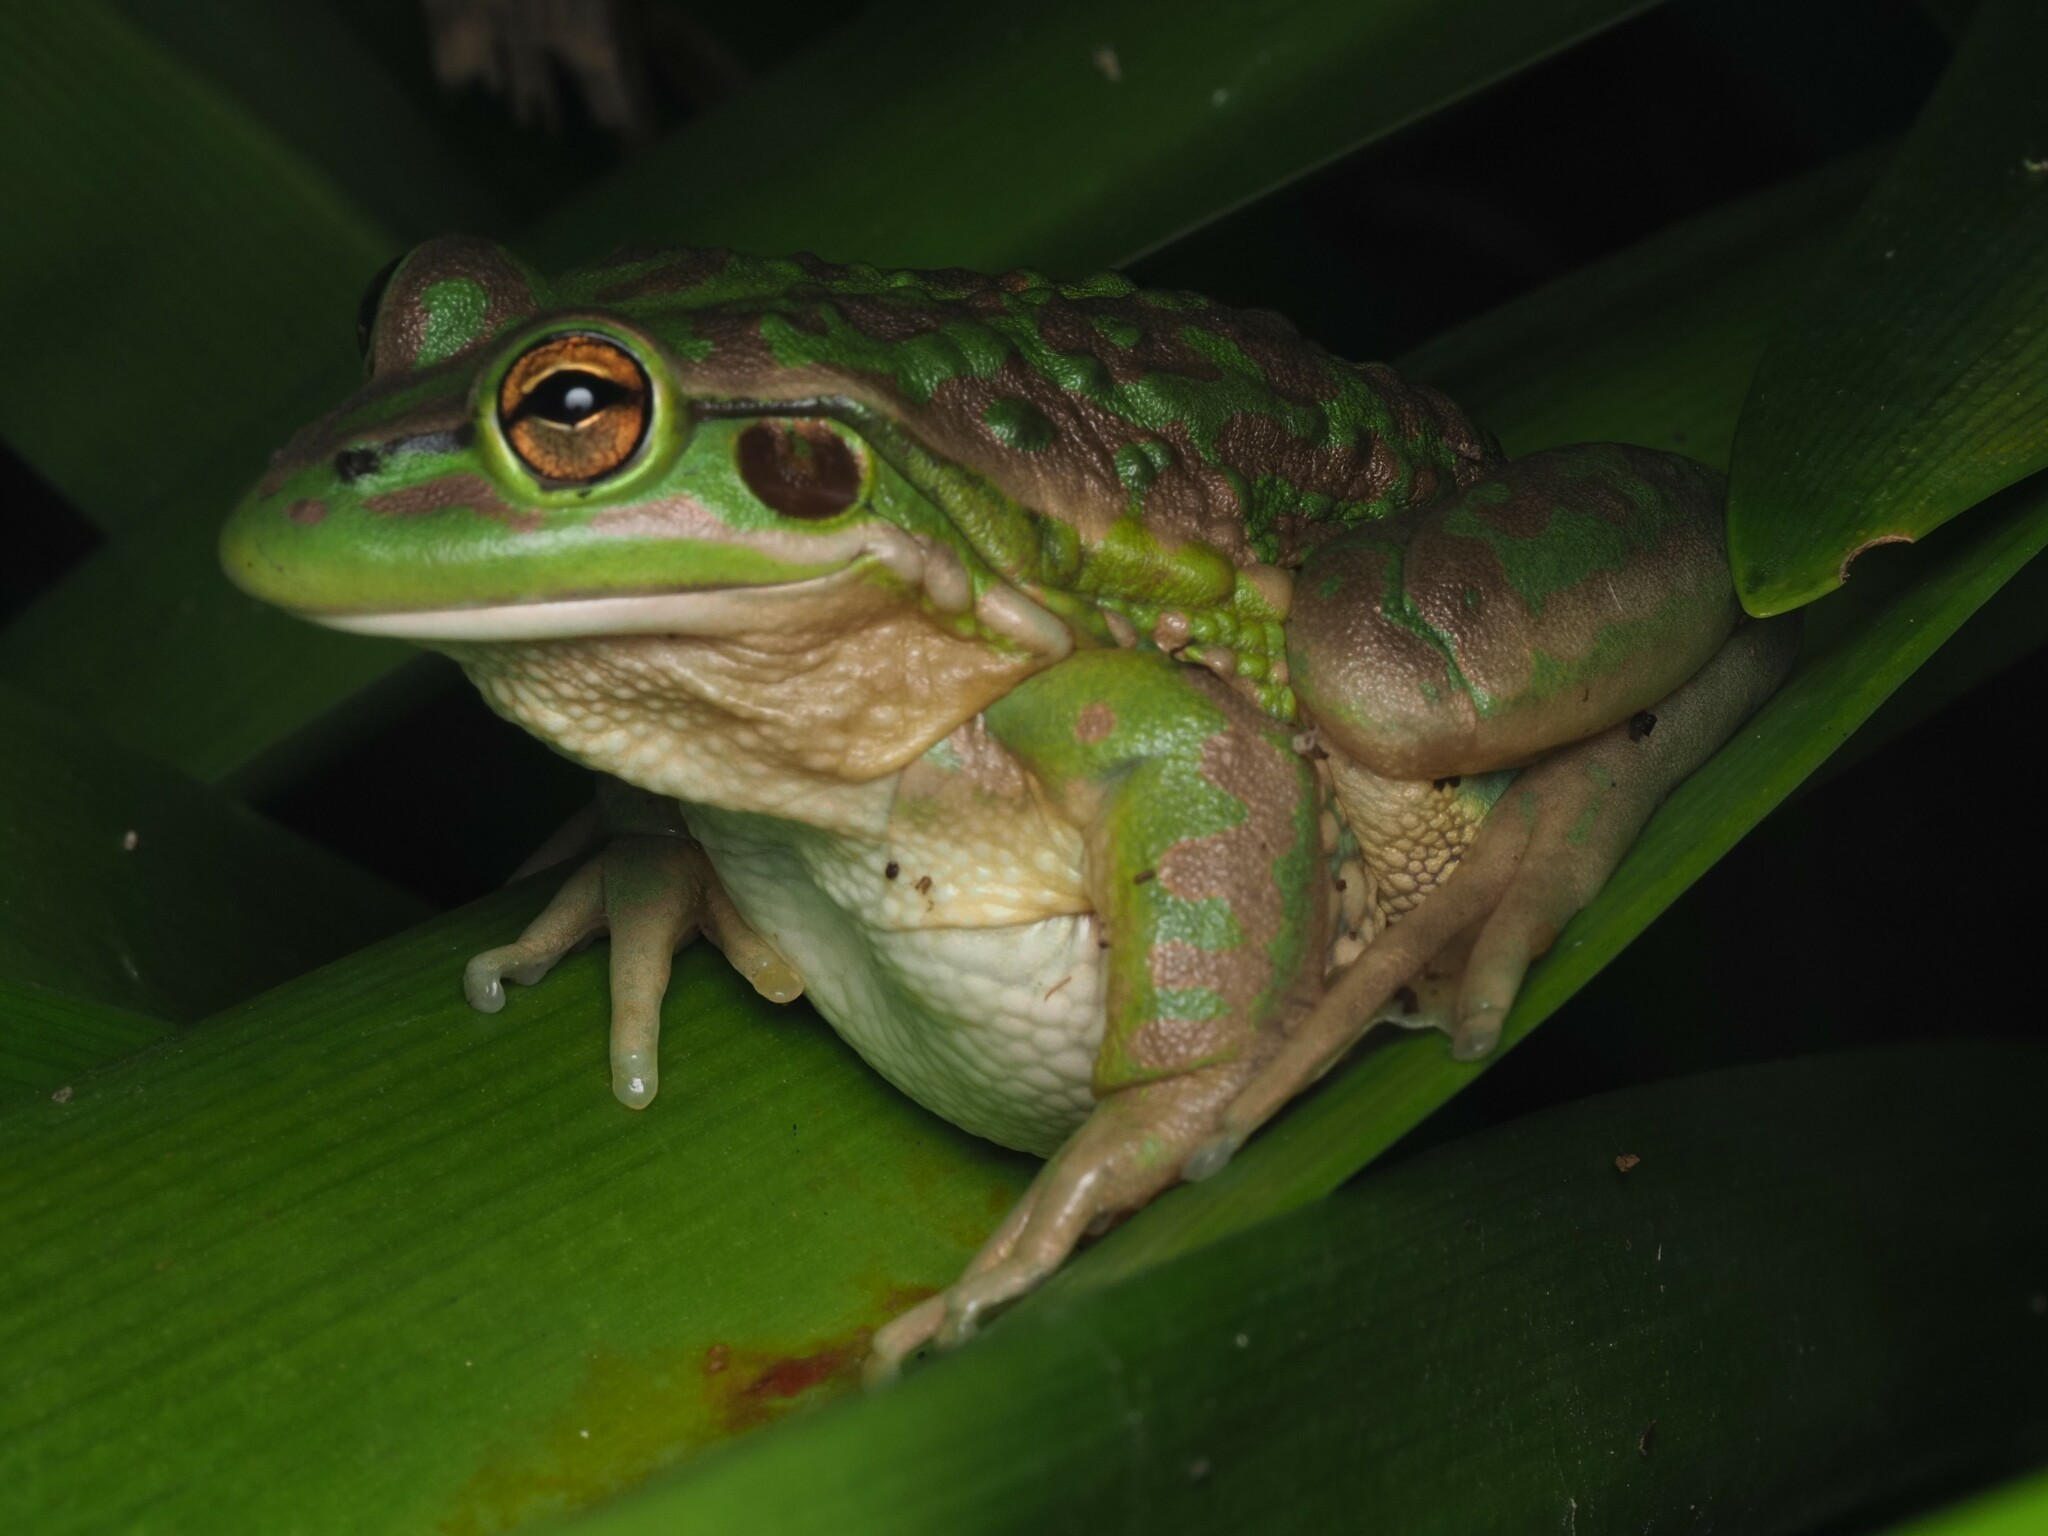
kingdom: Animalia
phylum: Chordata
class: Amphibia
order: Anura
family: Pelodryadidae
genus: Ranoidea
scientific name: Ranoidea raniformis
